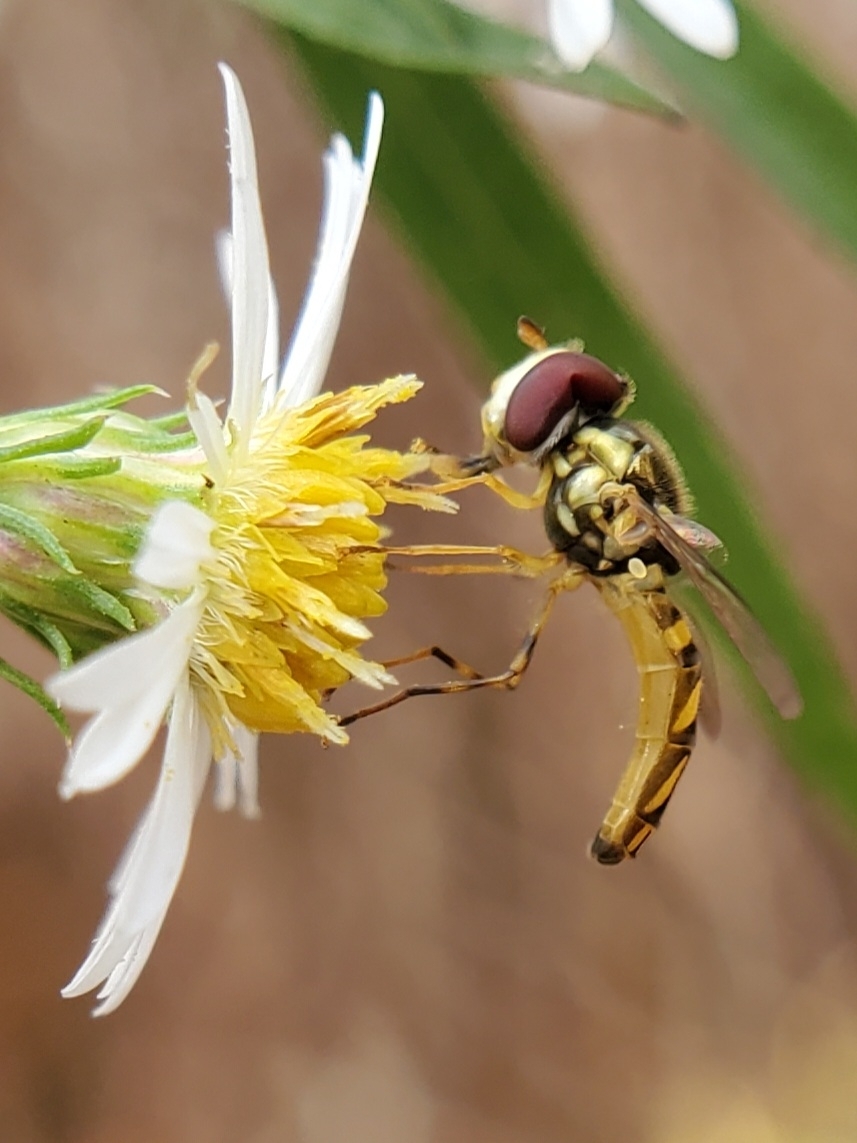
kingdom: Animalia
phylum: Arthropoda
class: Insecta
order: Diptera
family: Syrphidae
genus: Allograpta
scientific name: Allograpta obliqua
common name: Common oblique syrphid
